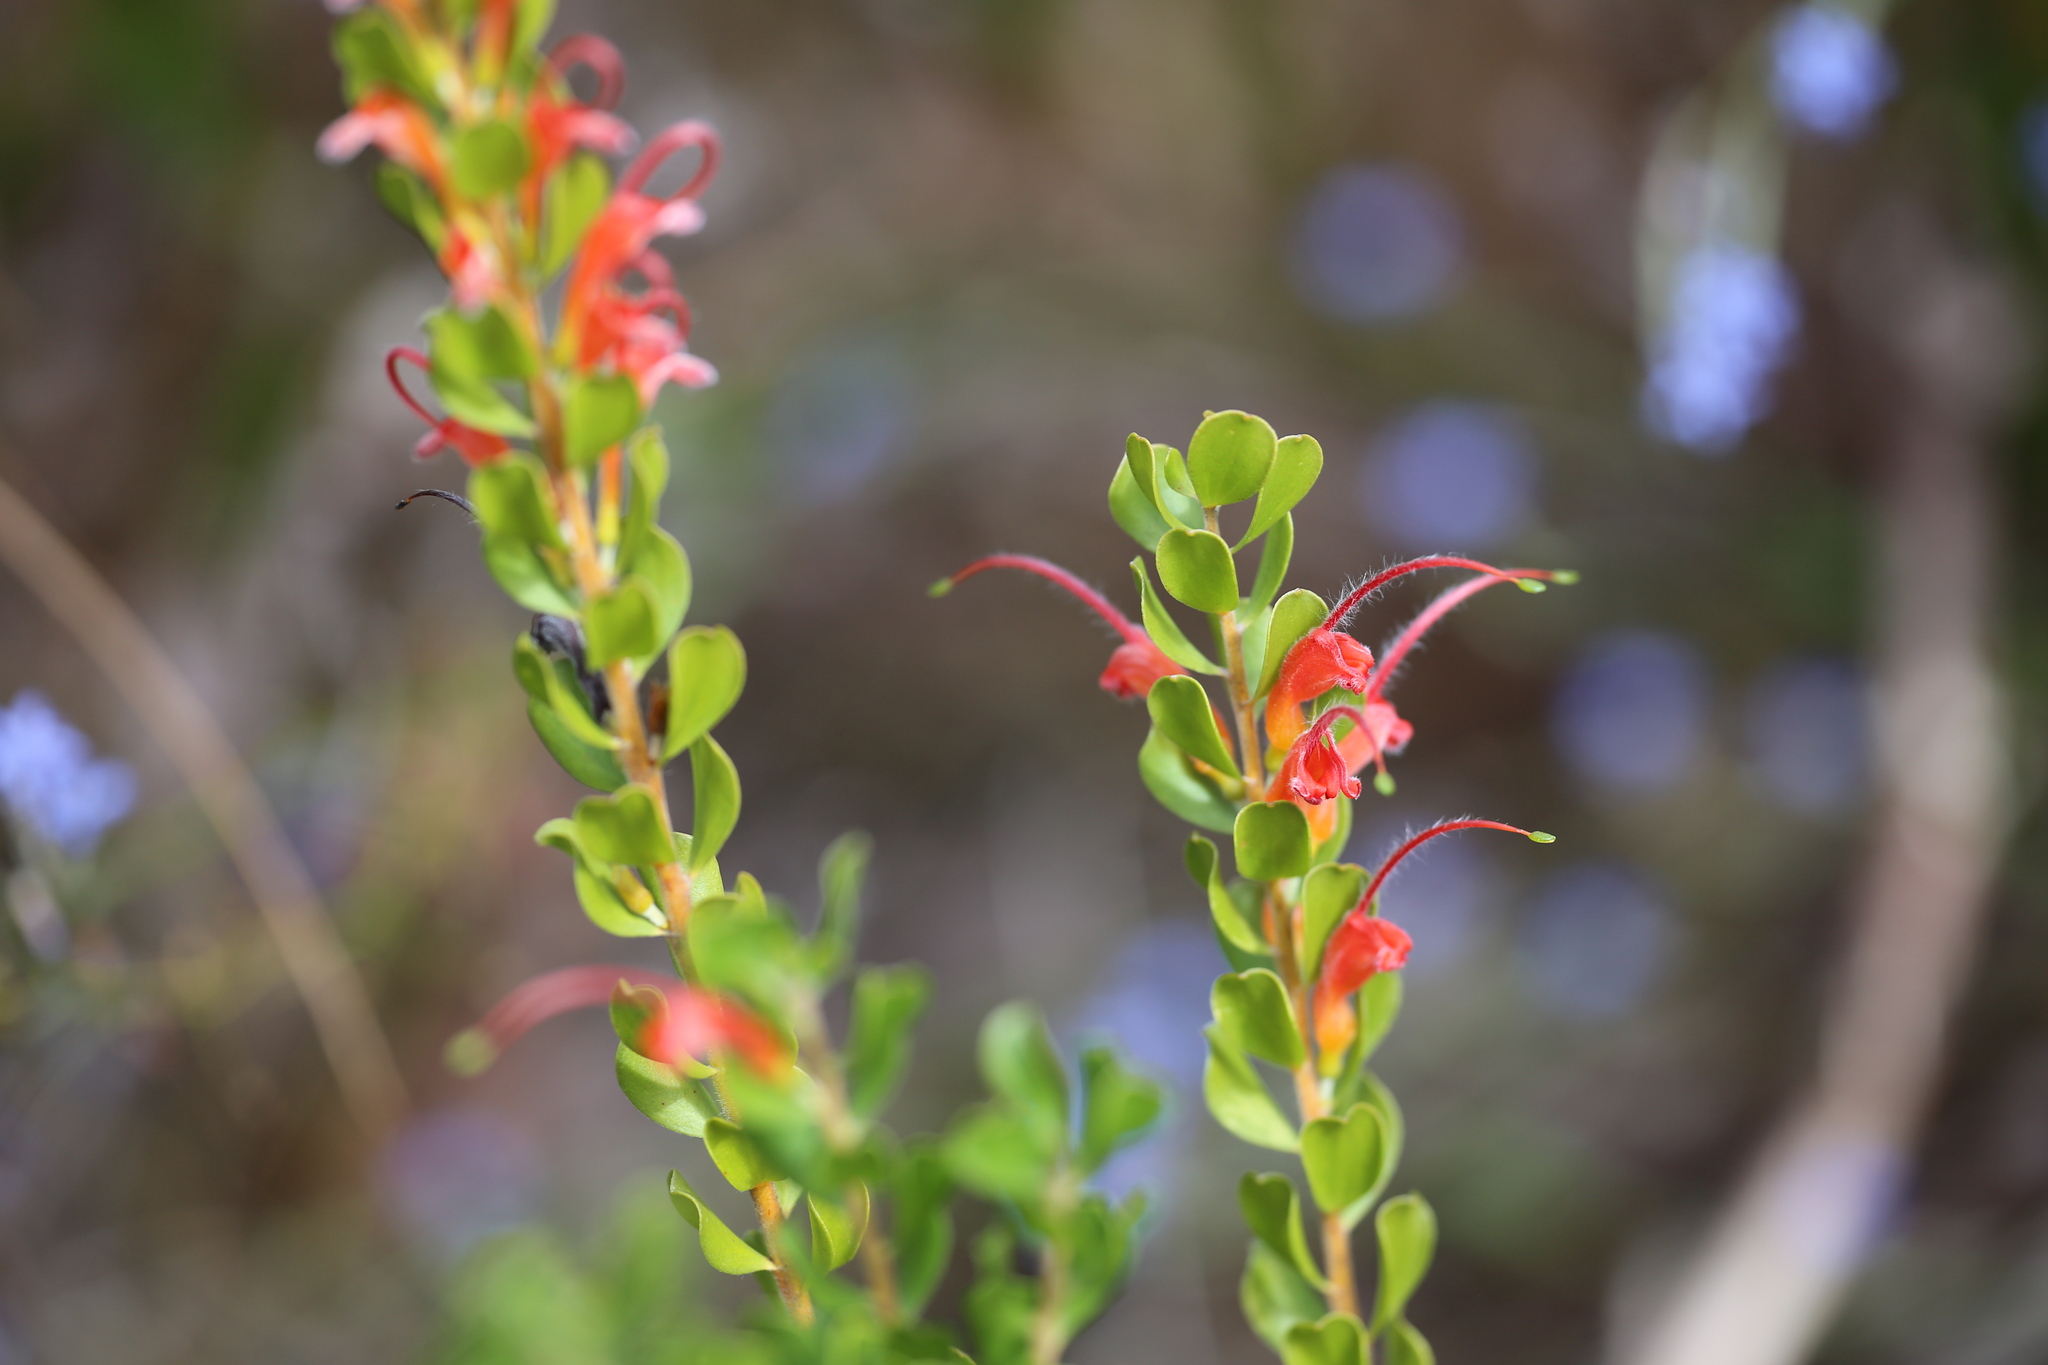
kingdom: Plantae
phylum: Tracheophyta
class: Magnoliopsida
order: Proteales
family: Proteaceae
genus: Adenanthos
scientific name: Adenanthos obovatus
